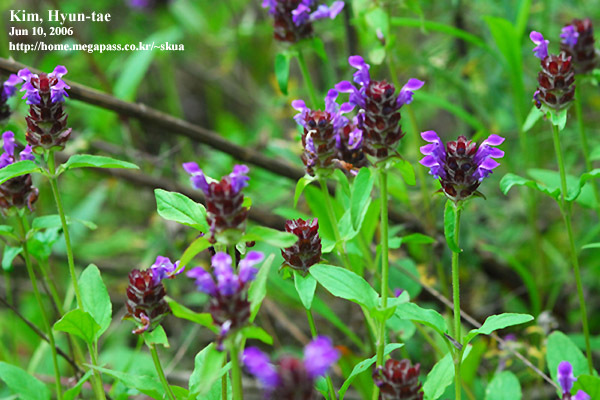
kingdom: Plantae
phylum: Tracheophyta
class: Magnoliopsida
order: Lamiales
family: Lamiaceae
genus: Prunella
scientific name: Prunella vulgaris
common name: Heal-all
